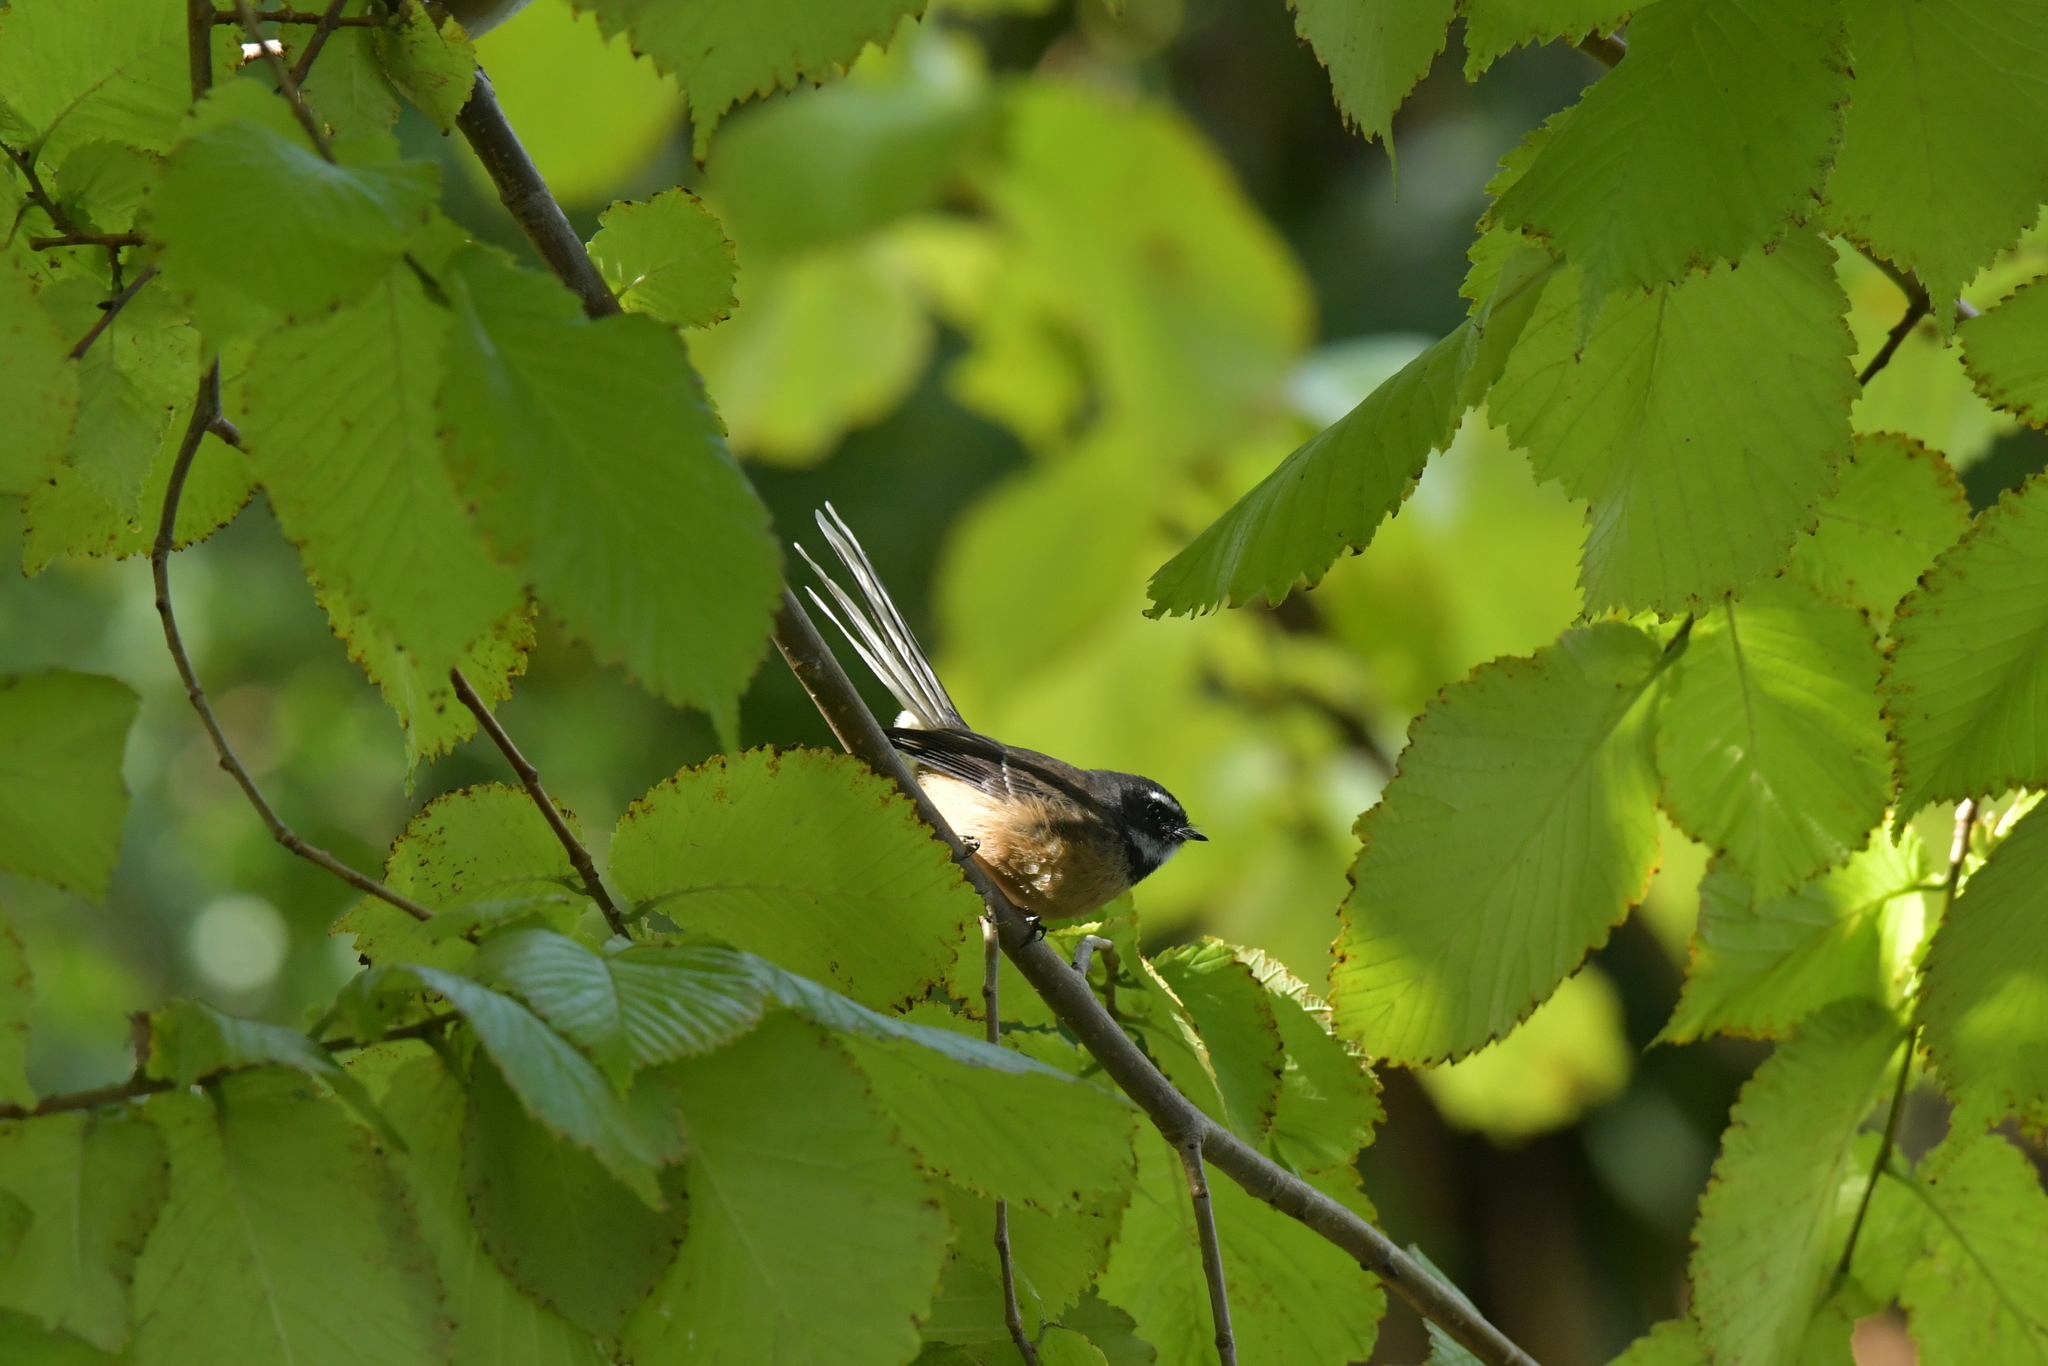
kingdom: Animalia
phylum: Chordata
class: Aves
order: Passeriformes
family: Rhipiduridae
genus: Rhipidura
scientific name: Rhipidura fuliginosa
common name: New zealand fantail
